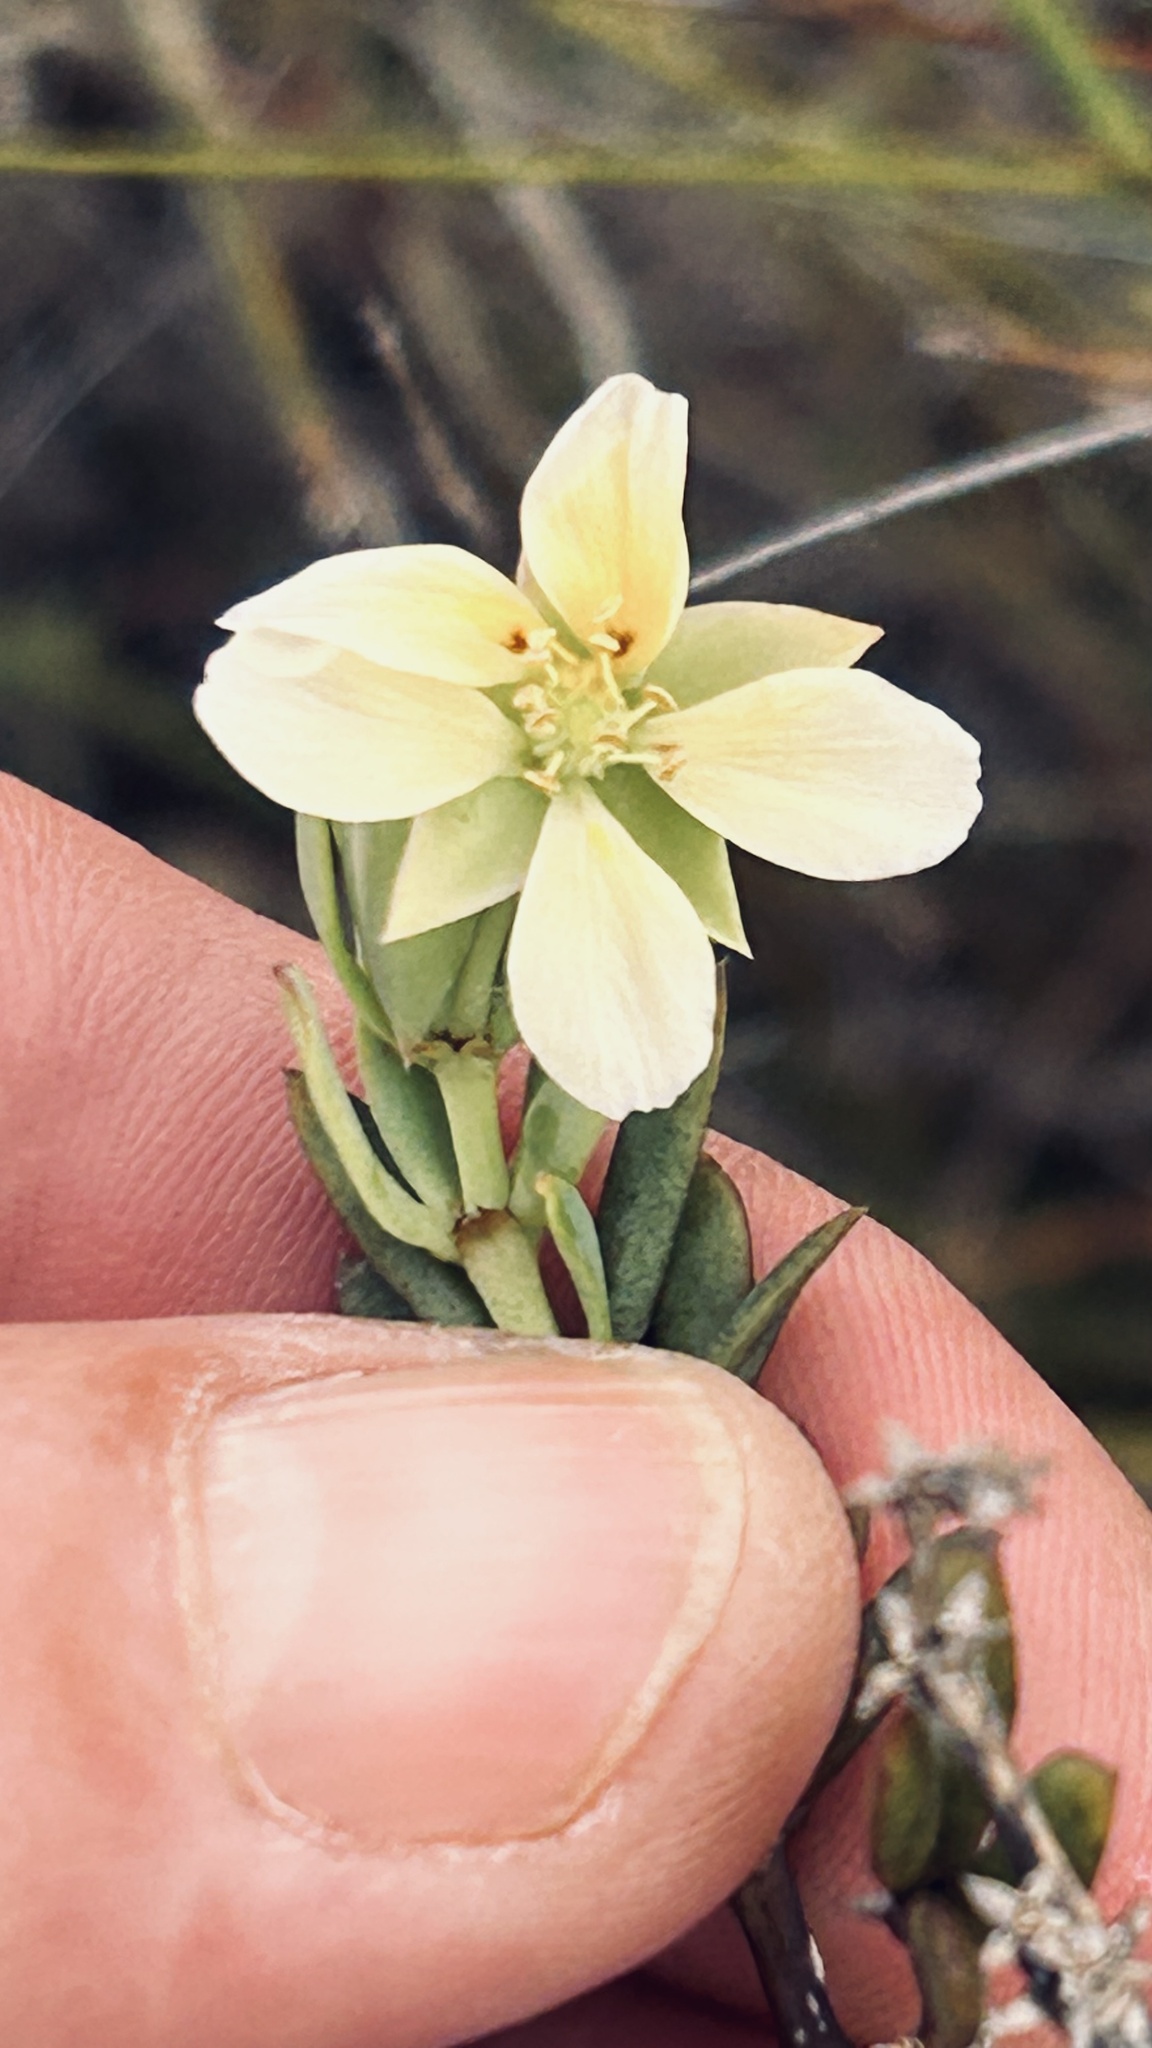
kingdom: Plantae
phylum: Tracheophyta
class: Magnoliopsida
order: Zygophyllales
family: Zygophyllaceae
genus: Roepera
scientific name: Roepera fulva
